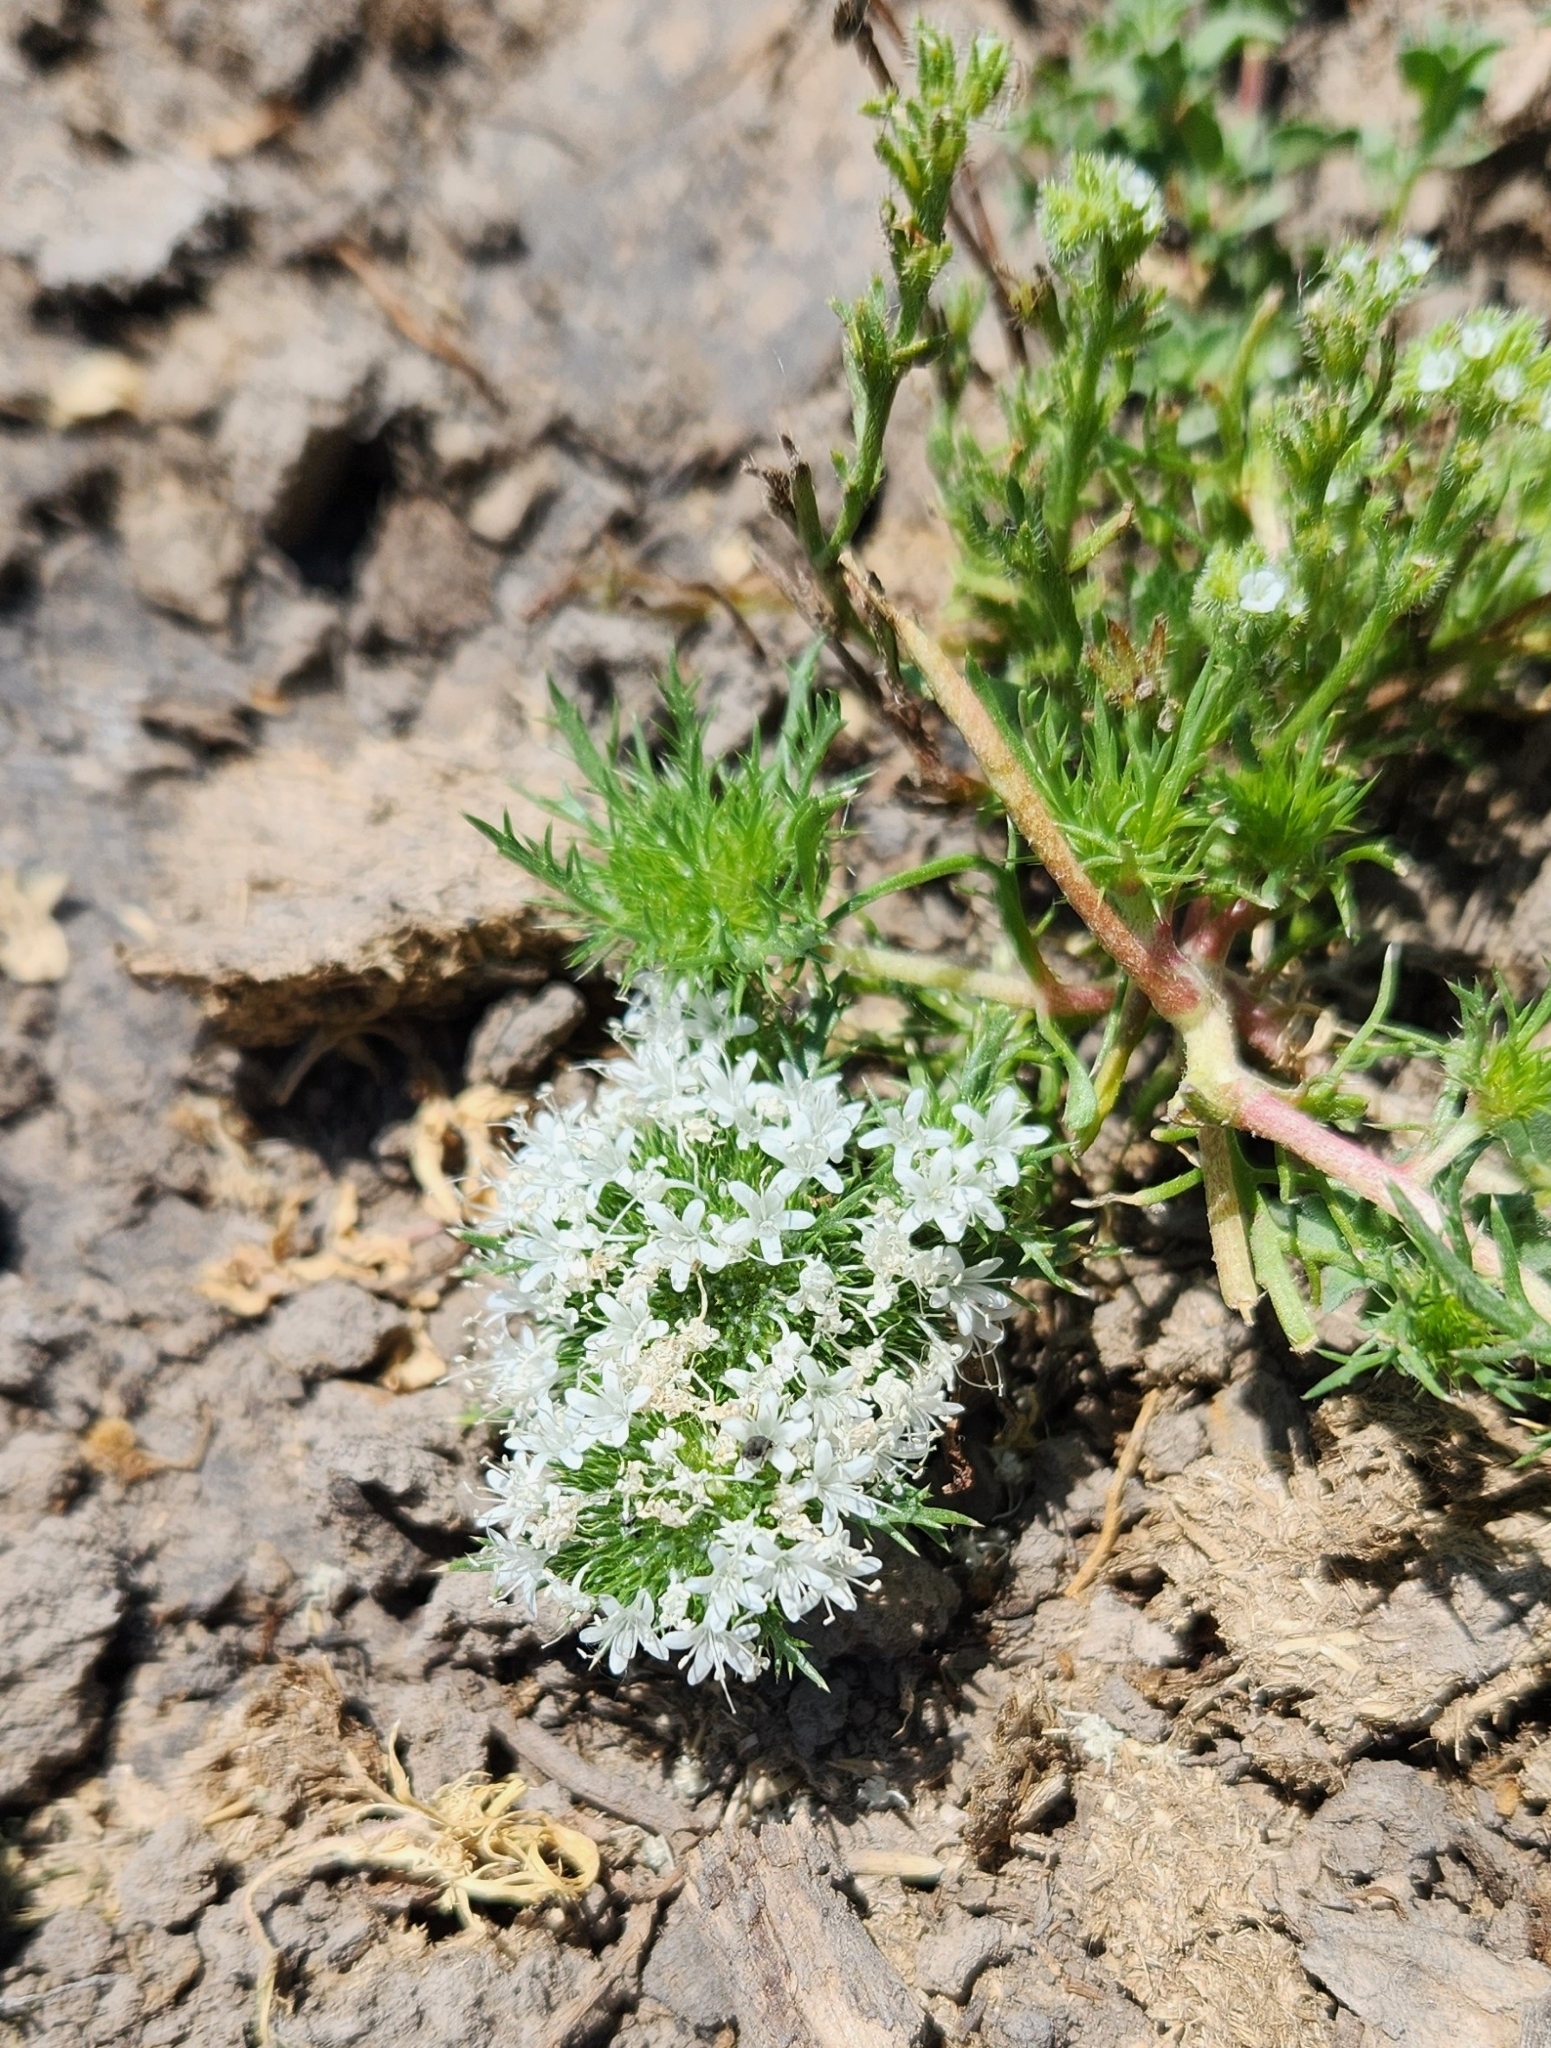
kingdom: Plantae
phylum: Tracheophyta
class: Magnoliopsida
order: Ericales
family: Polemoniaceae
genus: Navarretia
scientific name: Navarretia leucocephala
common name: White-flowered navarretia
